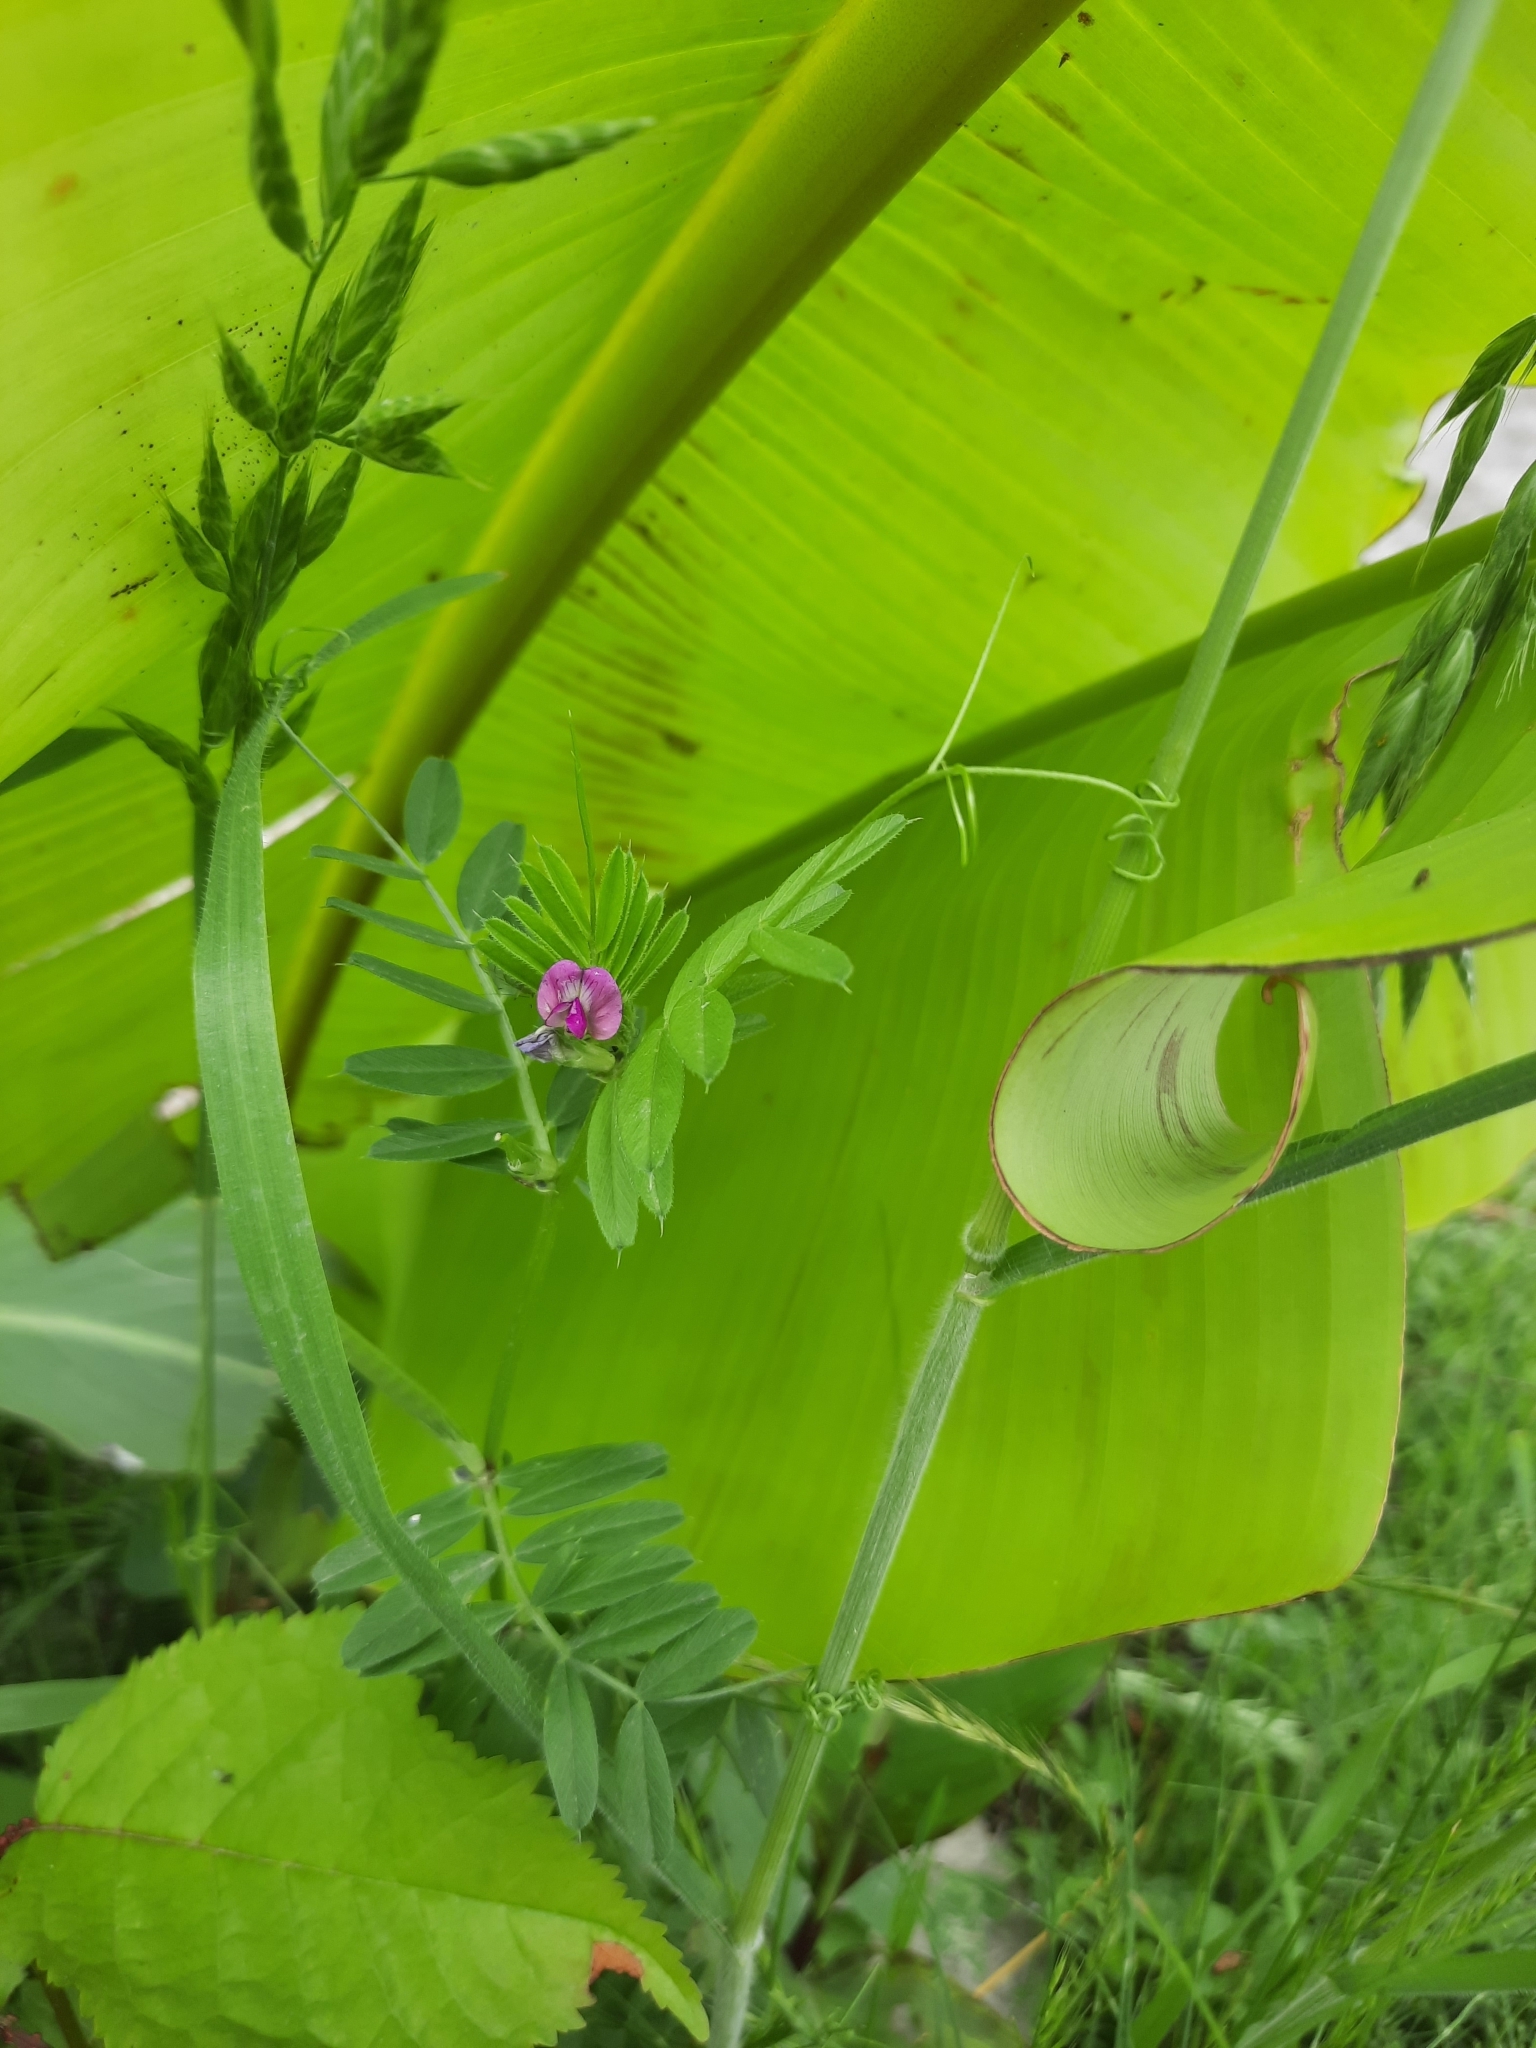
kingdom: Plantae
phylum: Tracheophyta
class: Magnoliopsida
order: Fabales
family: Fabaceae
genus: Vicia
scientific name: Vicia sativa
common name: Garden vetch
